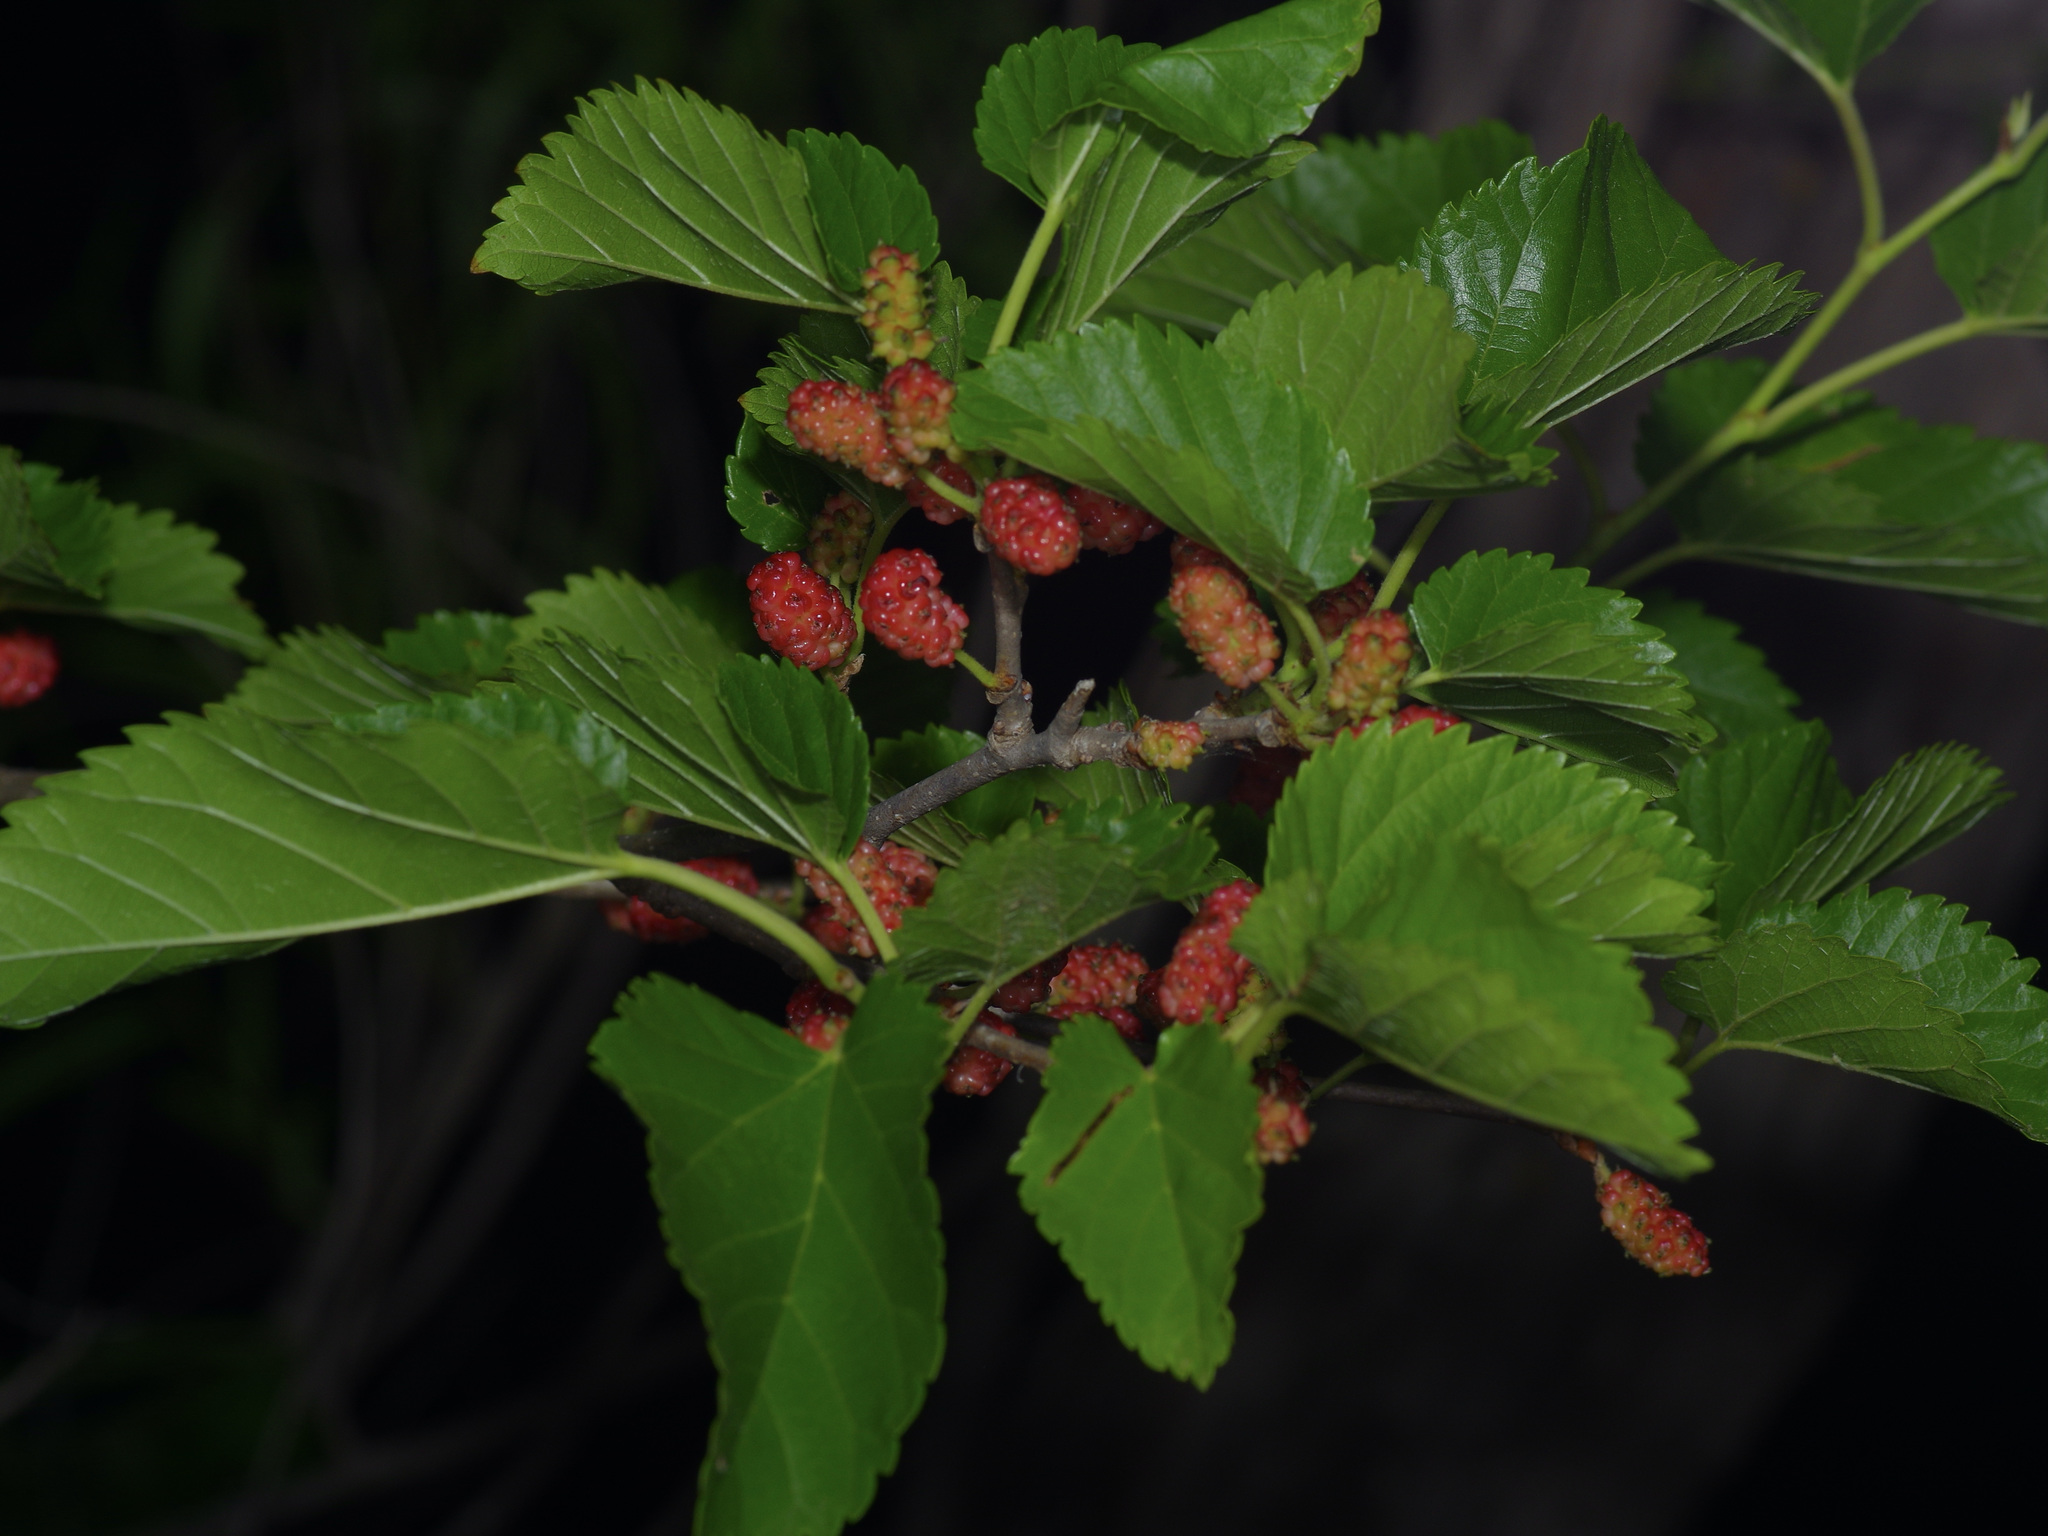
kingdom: Plantae
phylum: Tracheophyta
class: Magnoliopsida
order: Rosales
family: Moraceae
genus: Morus
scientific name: Morus alba
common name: White mulberry
